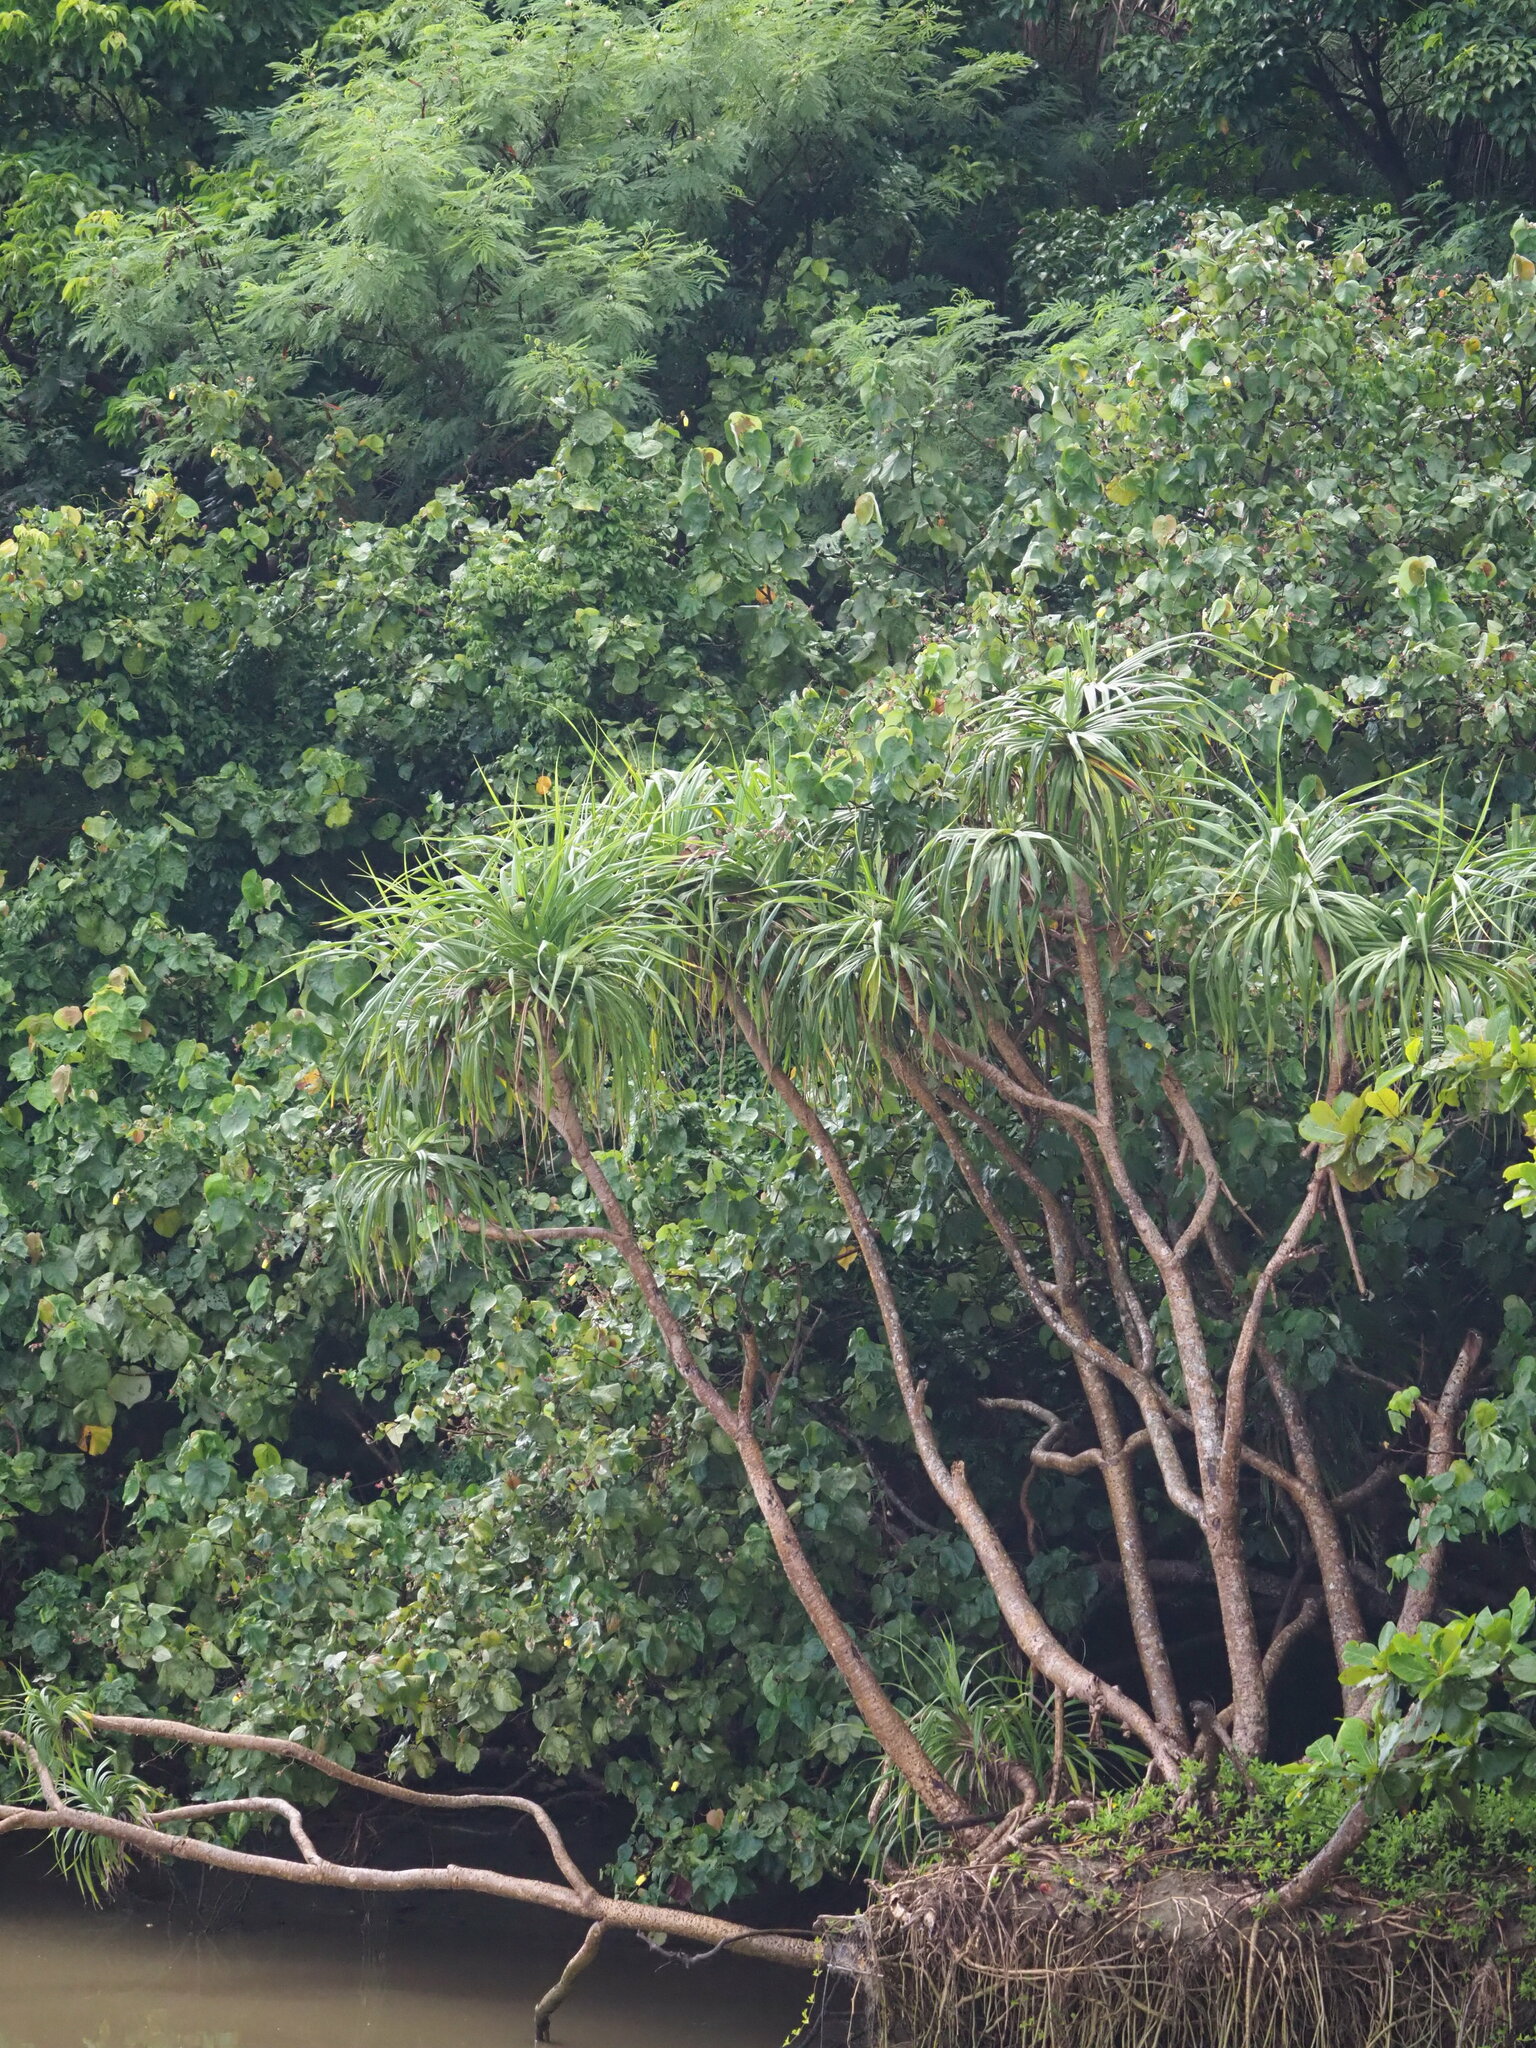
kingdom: Plantae
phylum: Tracheophyta
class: Liliopsida
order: Pandanales
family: Pandanaceae
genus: Pandanus
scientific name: Pandanus odorifer
